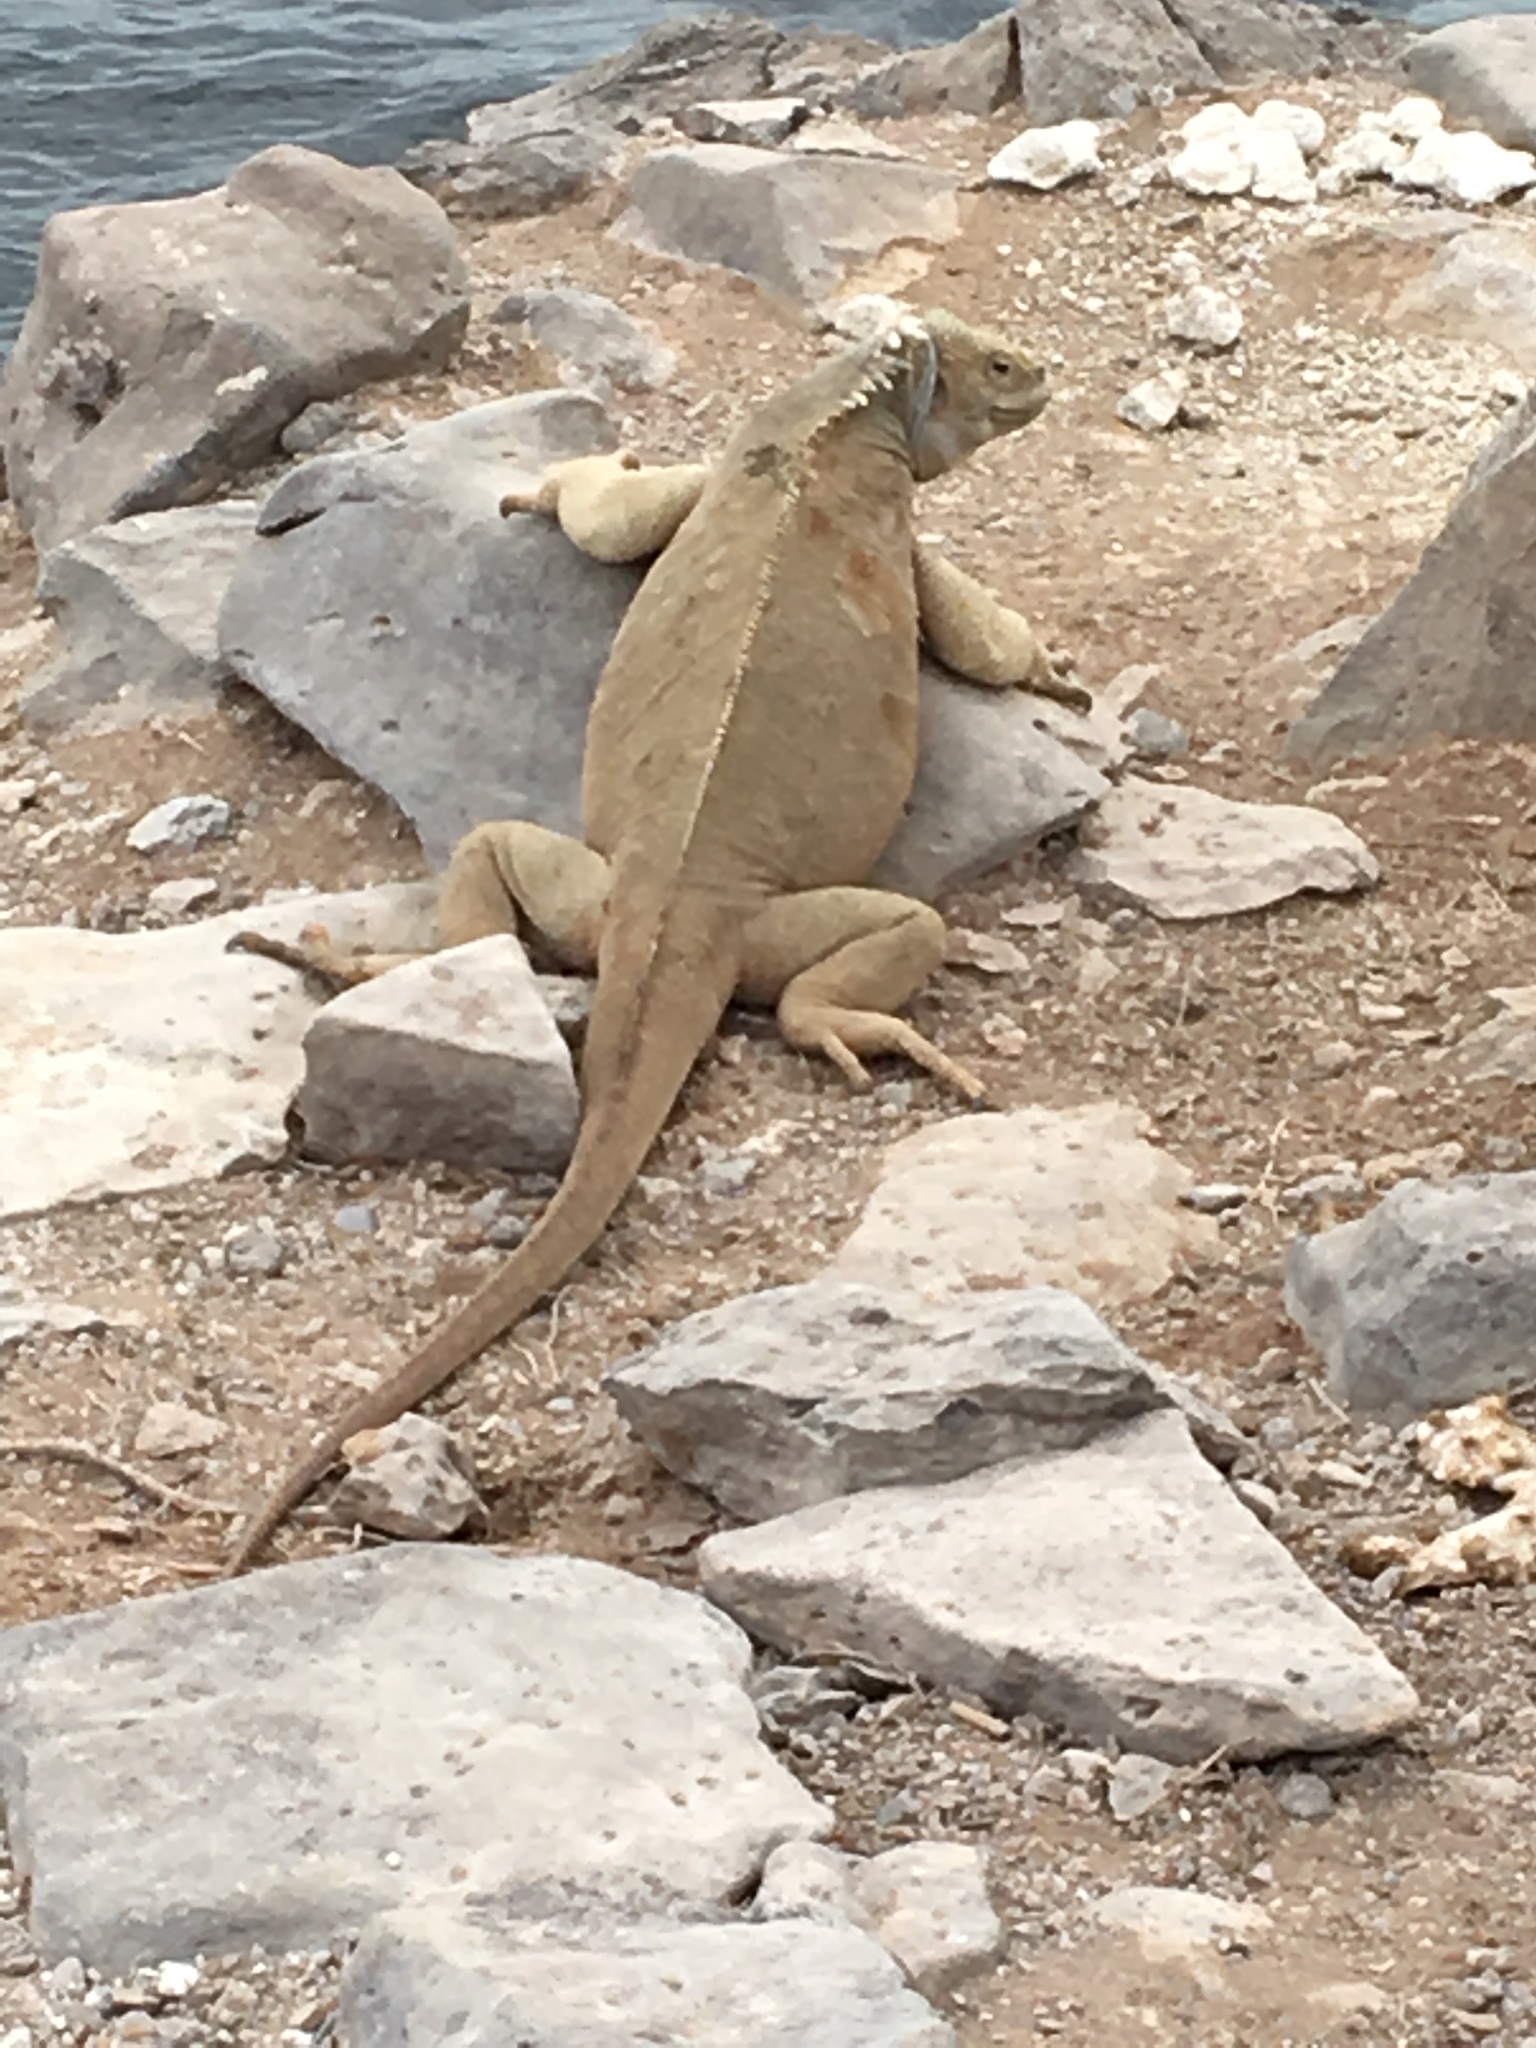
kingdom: Animalia
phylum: Chordata
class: Squamata
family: Iguanidae
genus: Conolophus
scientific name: Conolophus pallidus
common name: Santa fe land iguana
